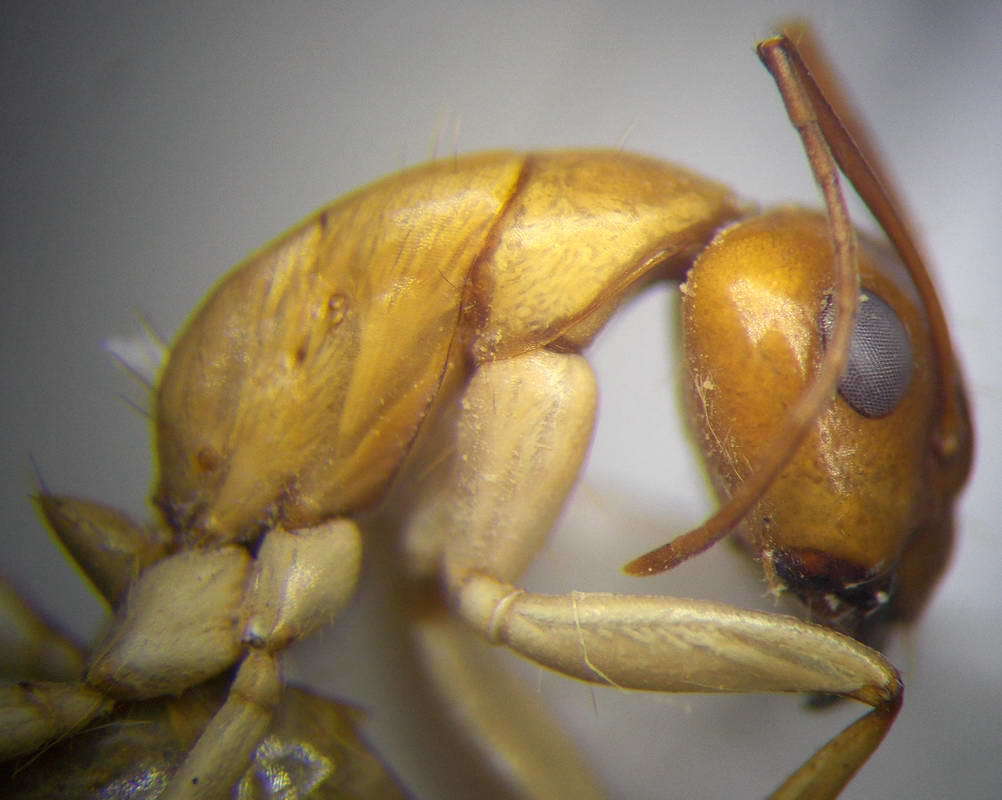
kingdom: Animalia
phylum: Arthropoda
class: Insecta
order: Hymenoptera
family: Formicidae
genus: Camponotus
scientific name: Camponotus turkestanus
